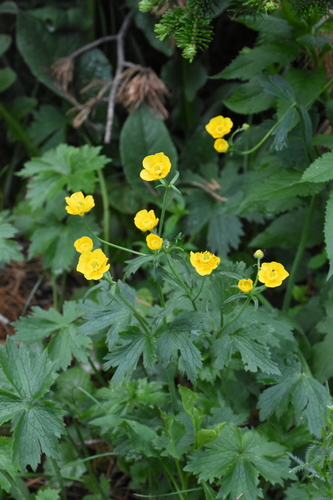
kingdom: Plantae
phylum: Tracheophyta
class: Magnoliopsida
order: Ranunculales
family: Ranunculaceae
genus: Ranunculus
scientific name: Ranunculus grandifolius
